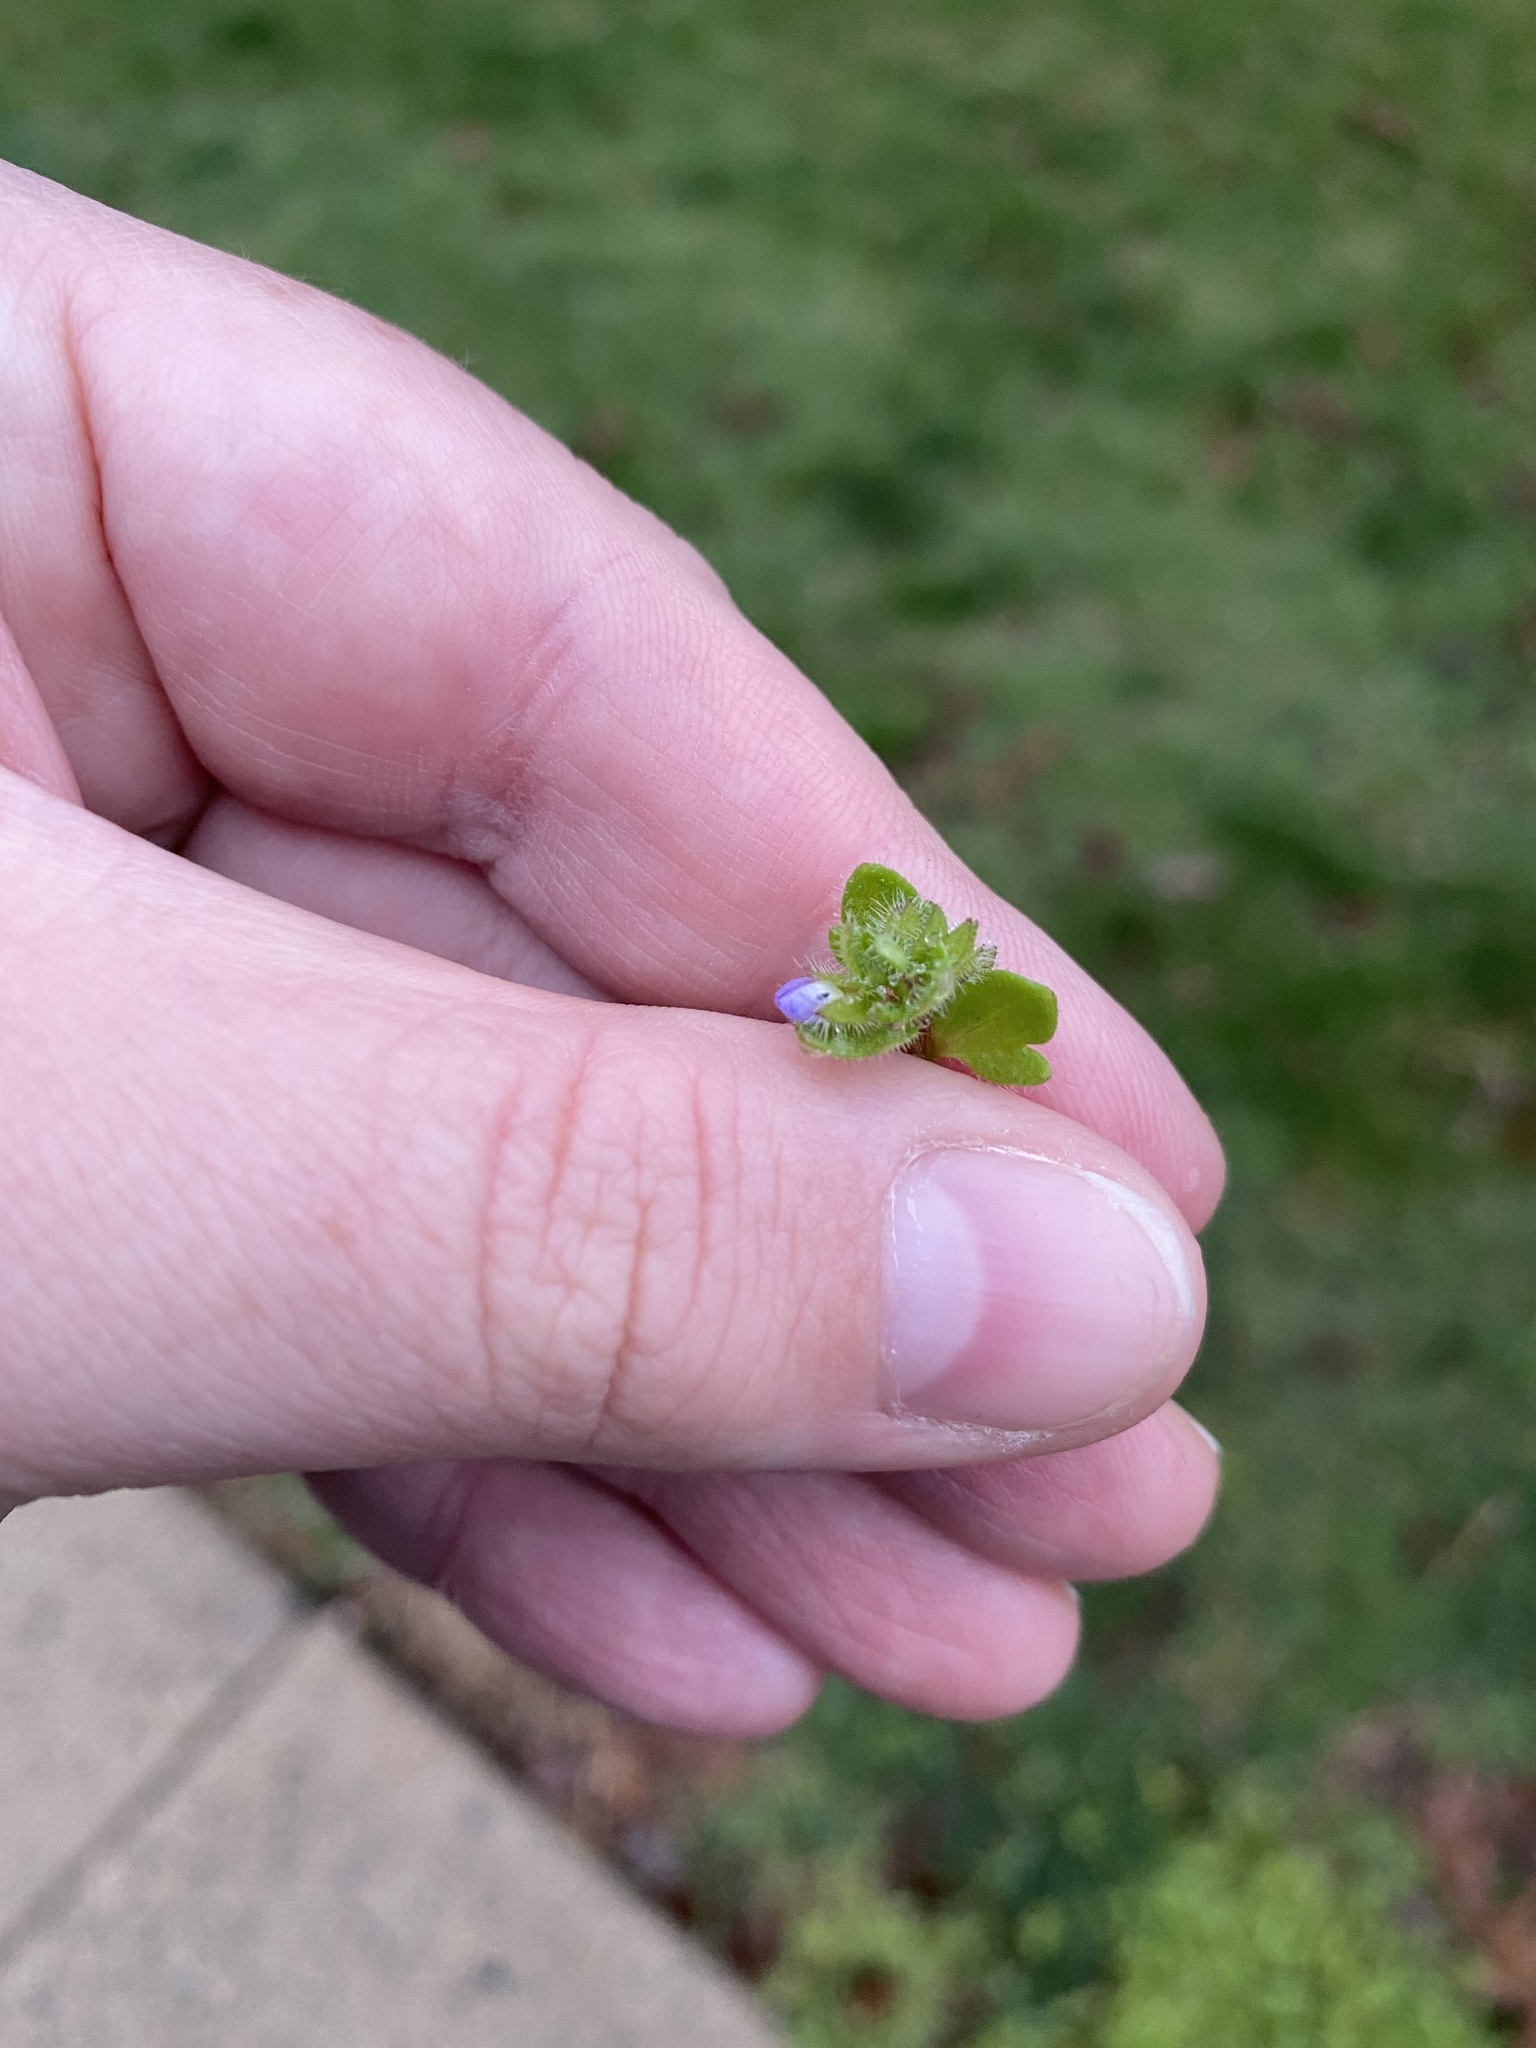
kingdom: Plantae
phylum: Tracheophyta
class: Magnoliopsida
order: Lamiales
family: Plantaginaceae
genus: Veronica
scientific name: Veronica hederifolia
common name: Ivy-leaved speedwell
